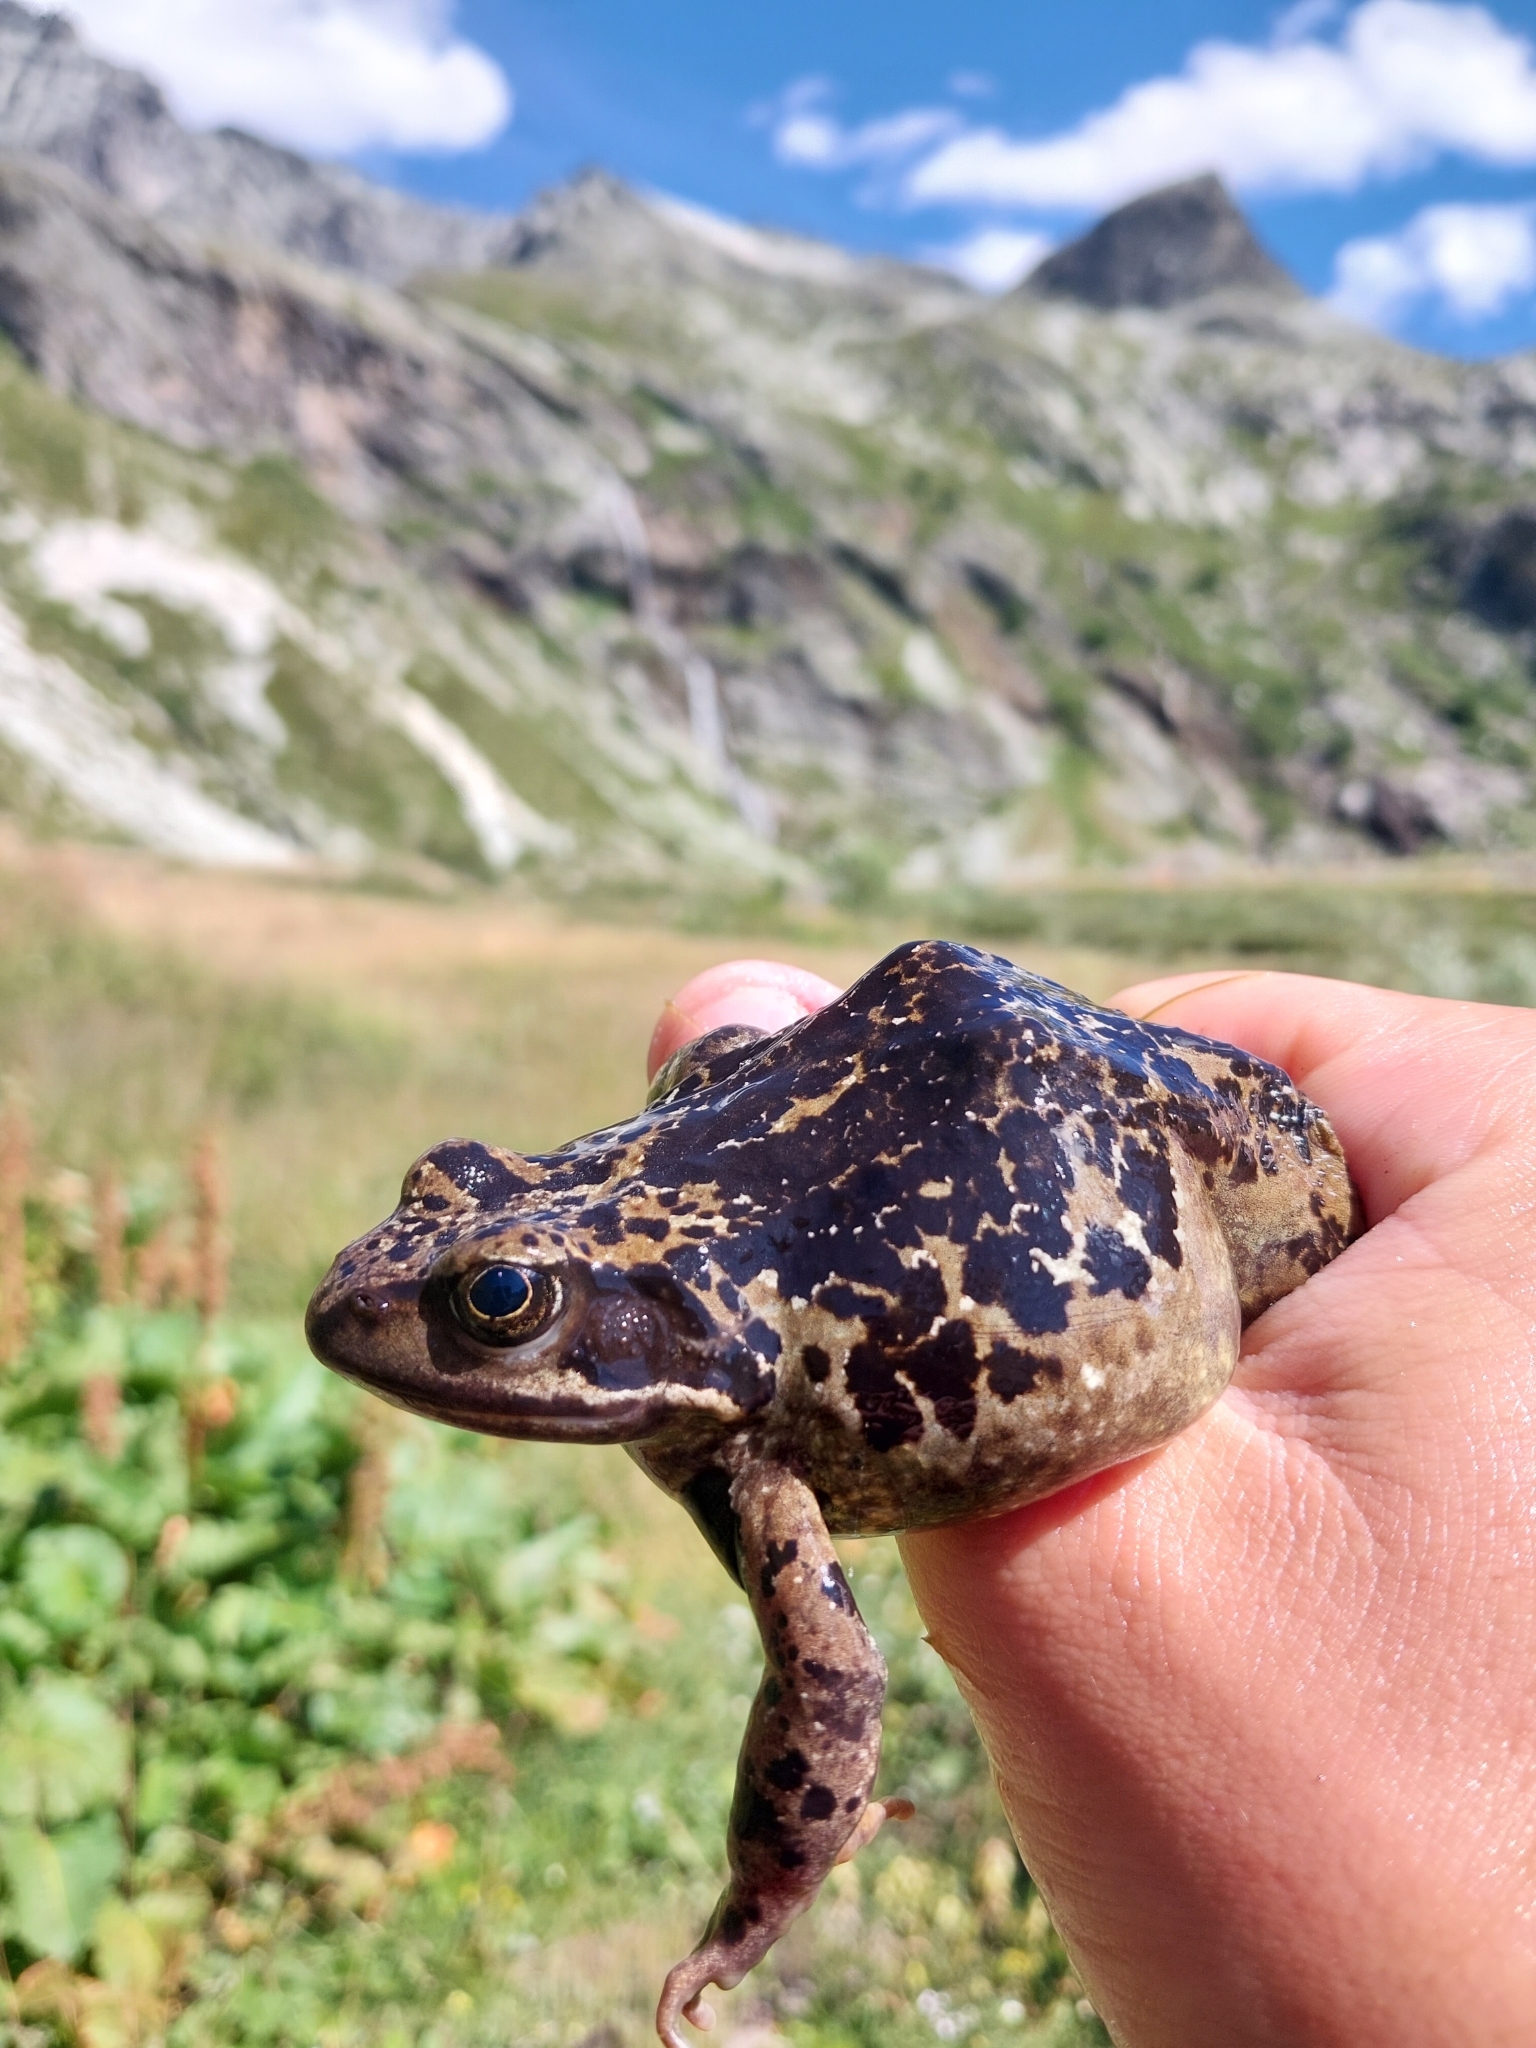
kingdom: Animalia
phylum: Chordata
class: Amphibia
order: Anura
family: Ranidae
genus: Rana
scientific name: Rana temporaria
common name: Common frog
